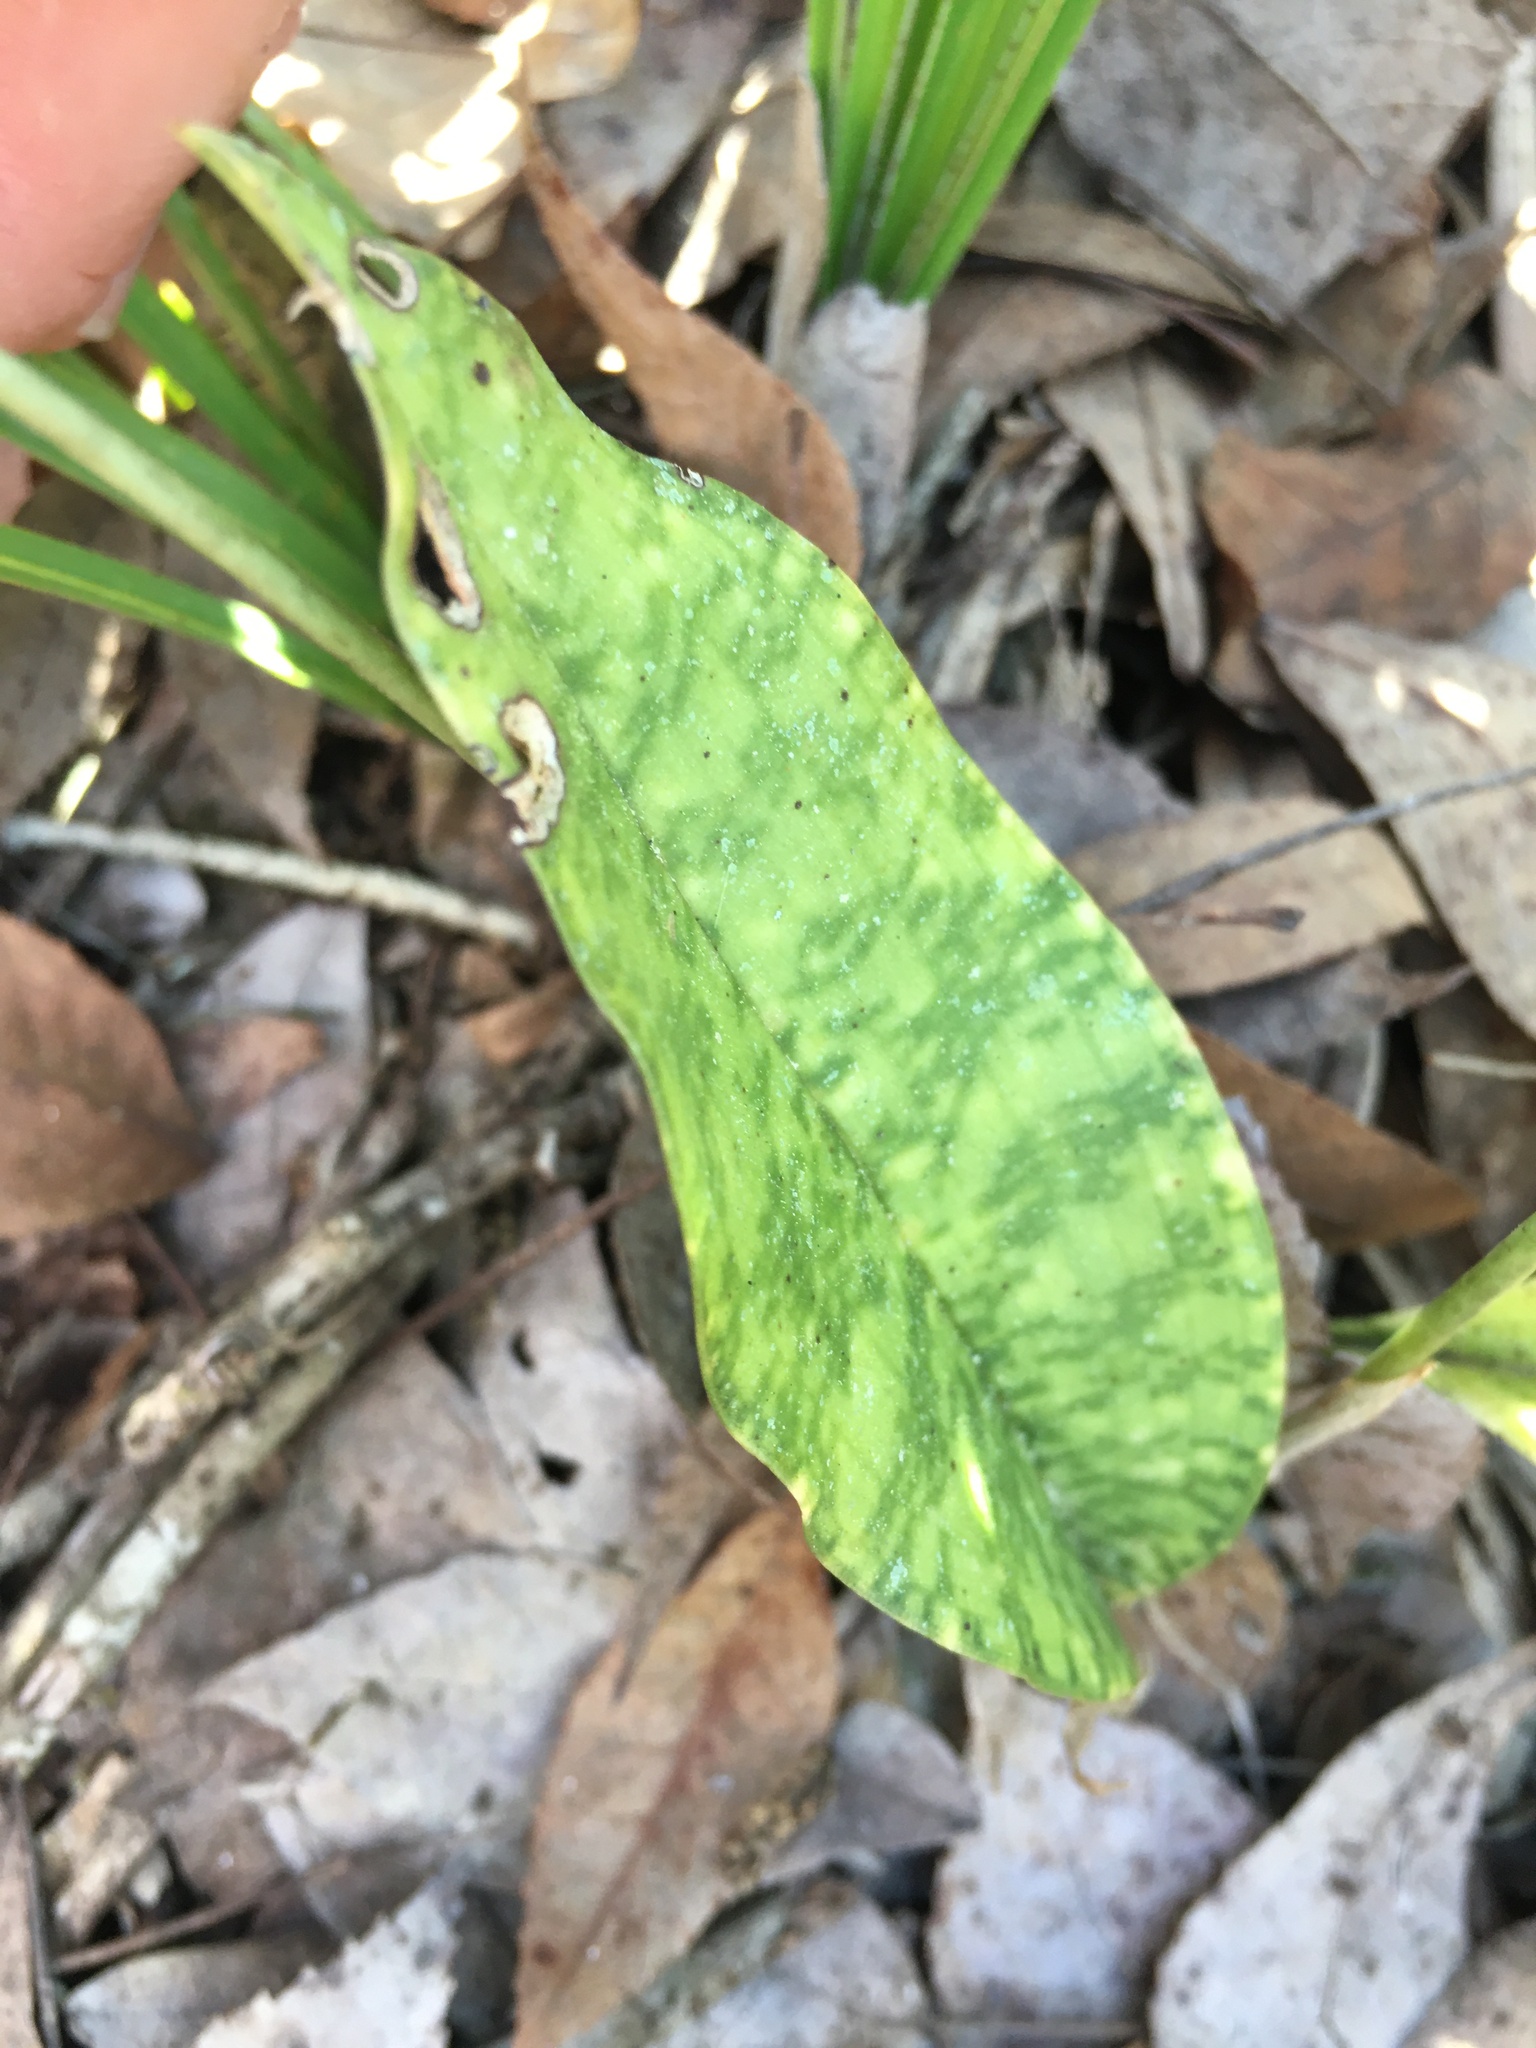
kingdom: Plantae
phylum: Tracheophyta
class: Liliopsida
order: Asparagales
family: Orchidaceae
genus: Eulophia
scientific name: Eulophia maculata
